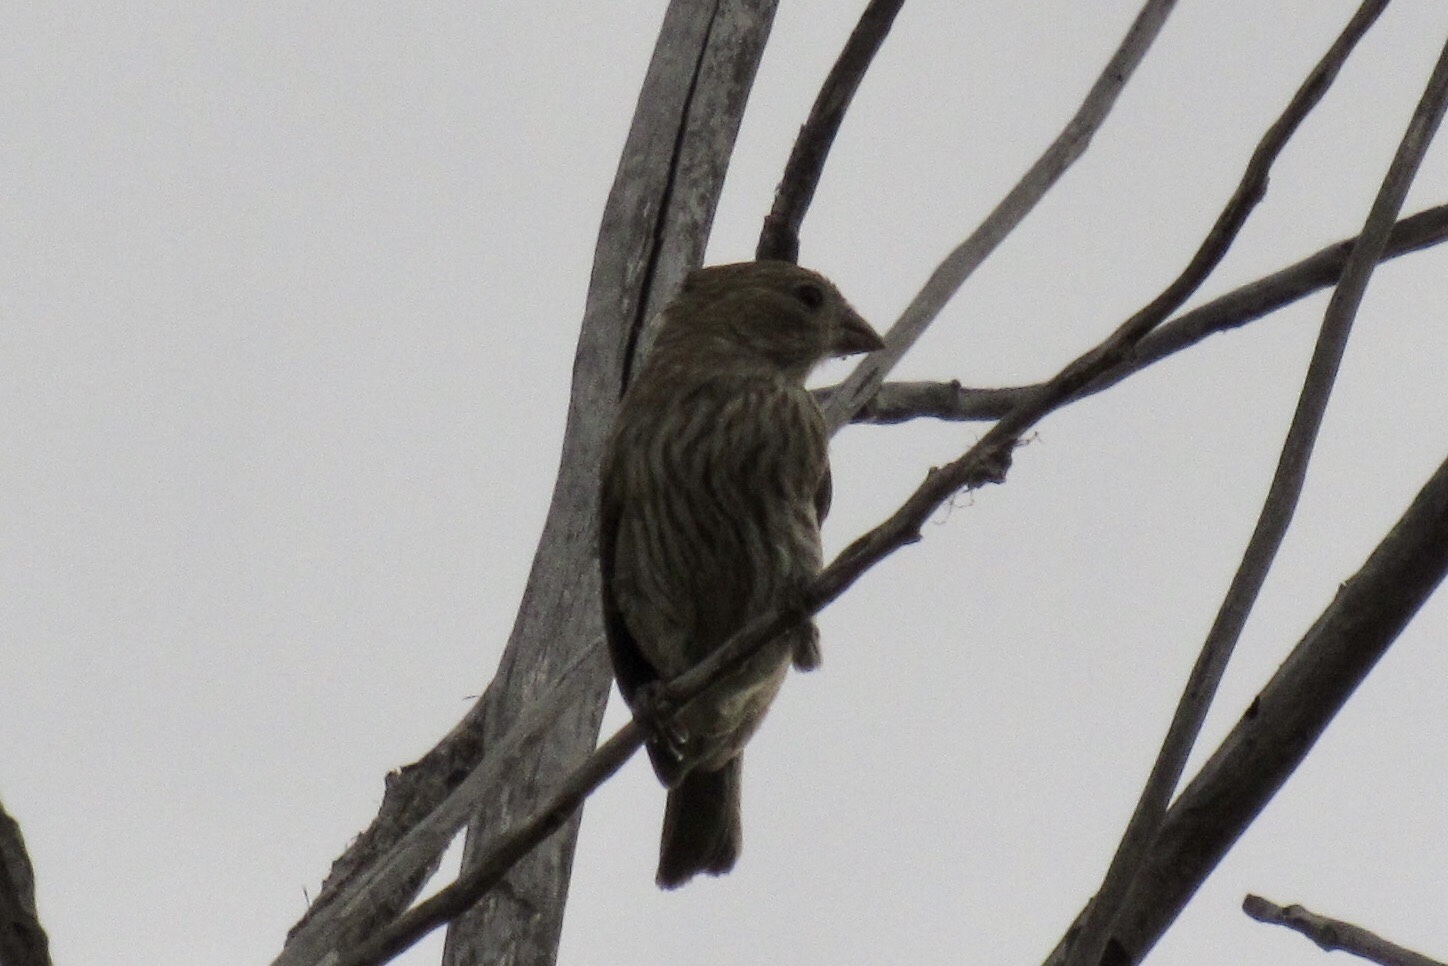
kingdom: Animalia
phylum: Chordata
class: Aves
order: Passeriformes
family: Fringillidae
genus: Haemorhous
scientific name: Haemorhous mexicanus
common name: House finch
